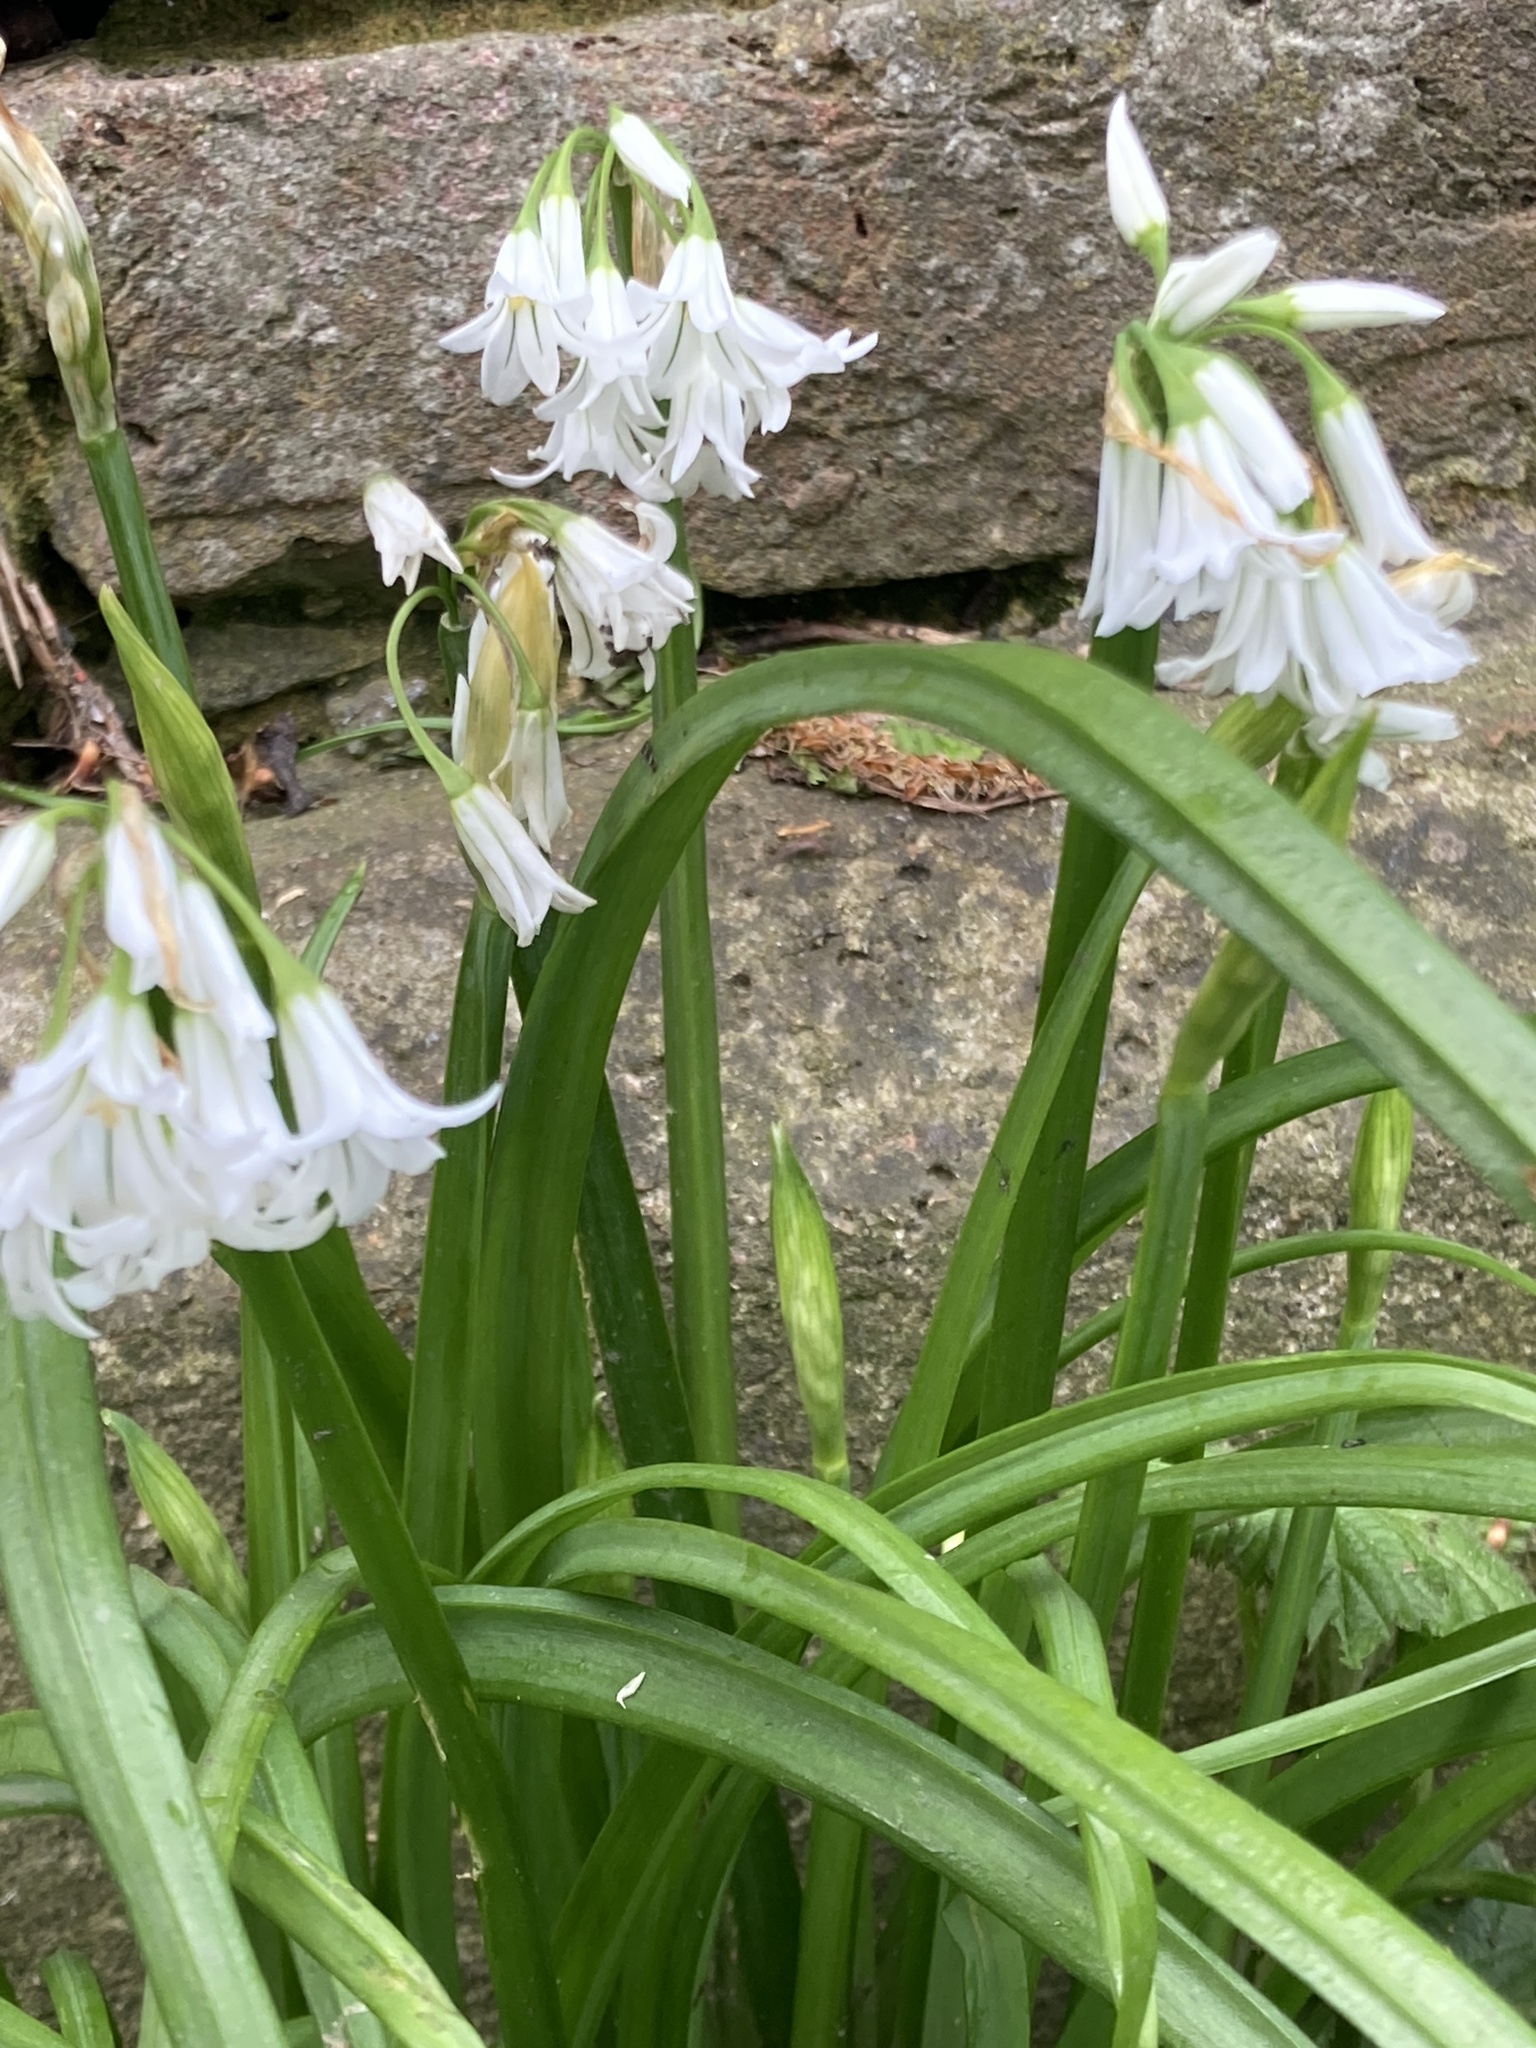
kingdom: Plantae
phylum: Tracheophyta
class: Liliopsida
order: Asparagales
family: Amaryllidaceae
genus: Allium
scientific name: Allium triquetrum
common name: Three-cornered garlic
